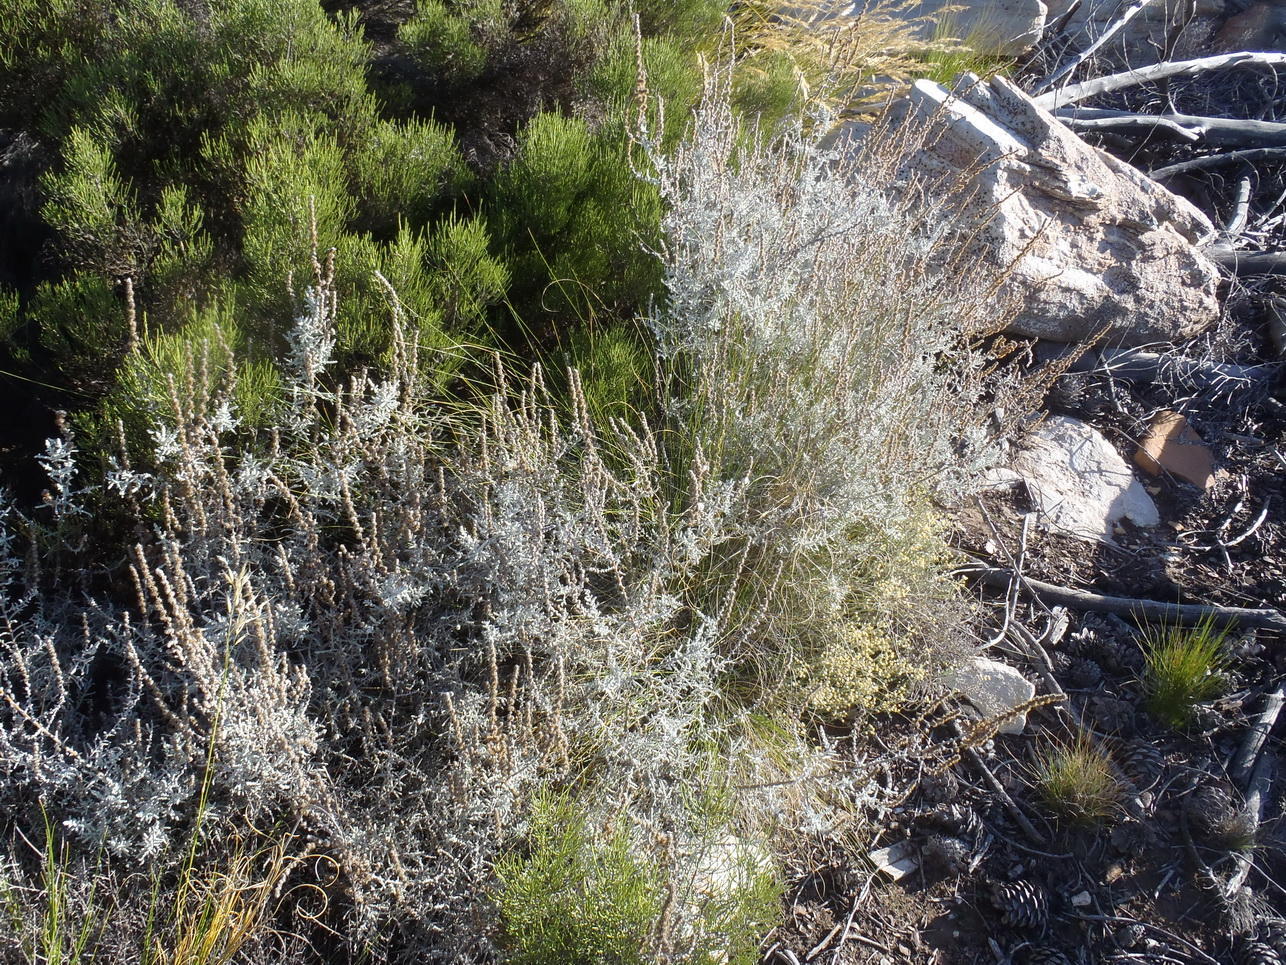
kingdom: Plantae
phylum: Tracheophyta
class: Magnoliopsida
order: Asterales
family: Asteraceae
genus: Seriphium
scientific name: Seriphium plumosum
